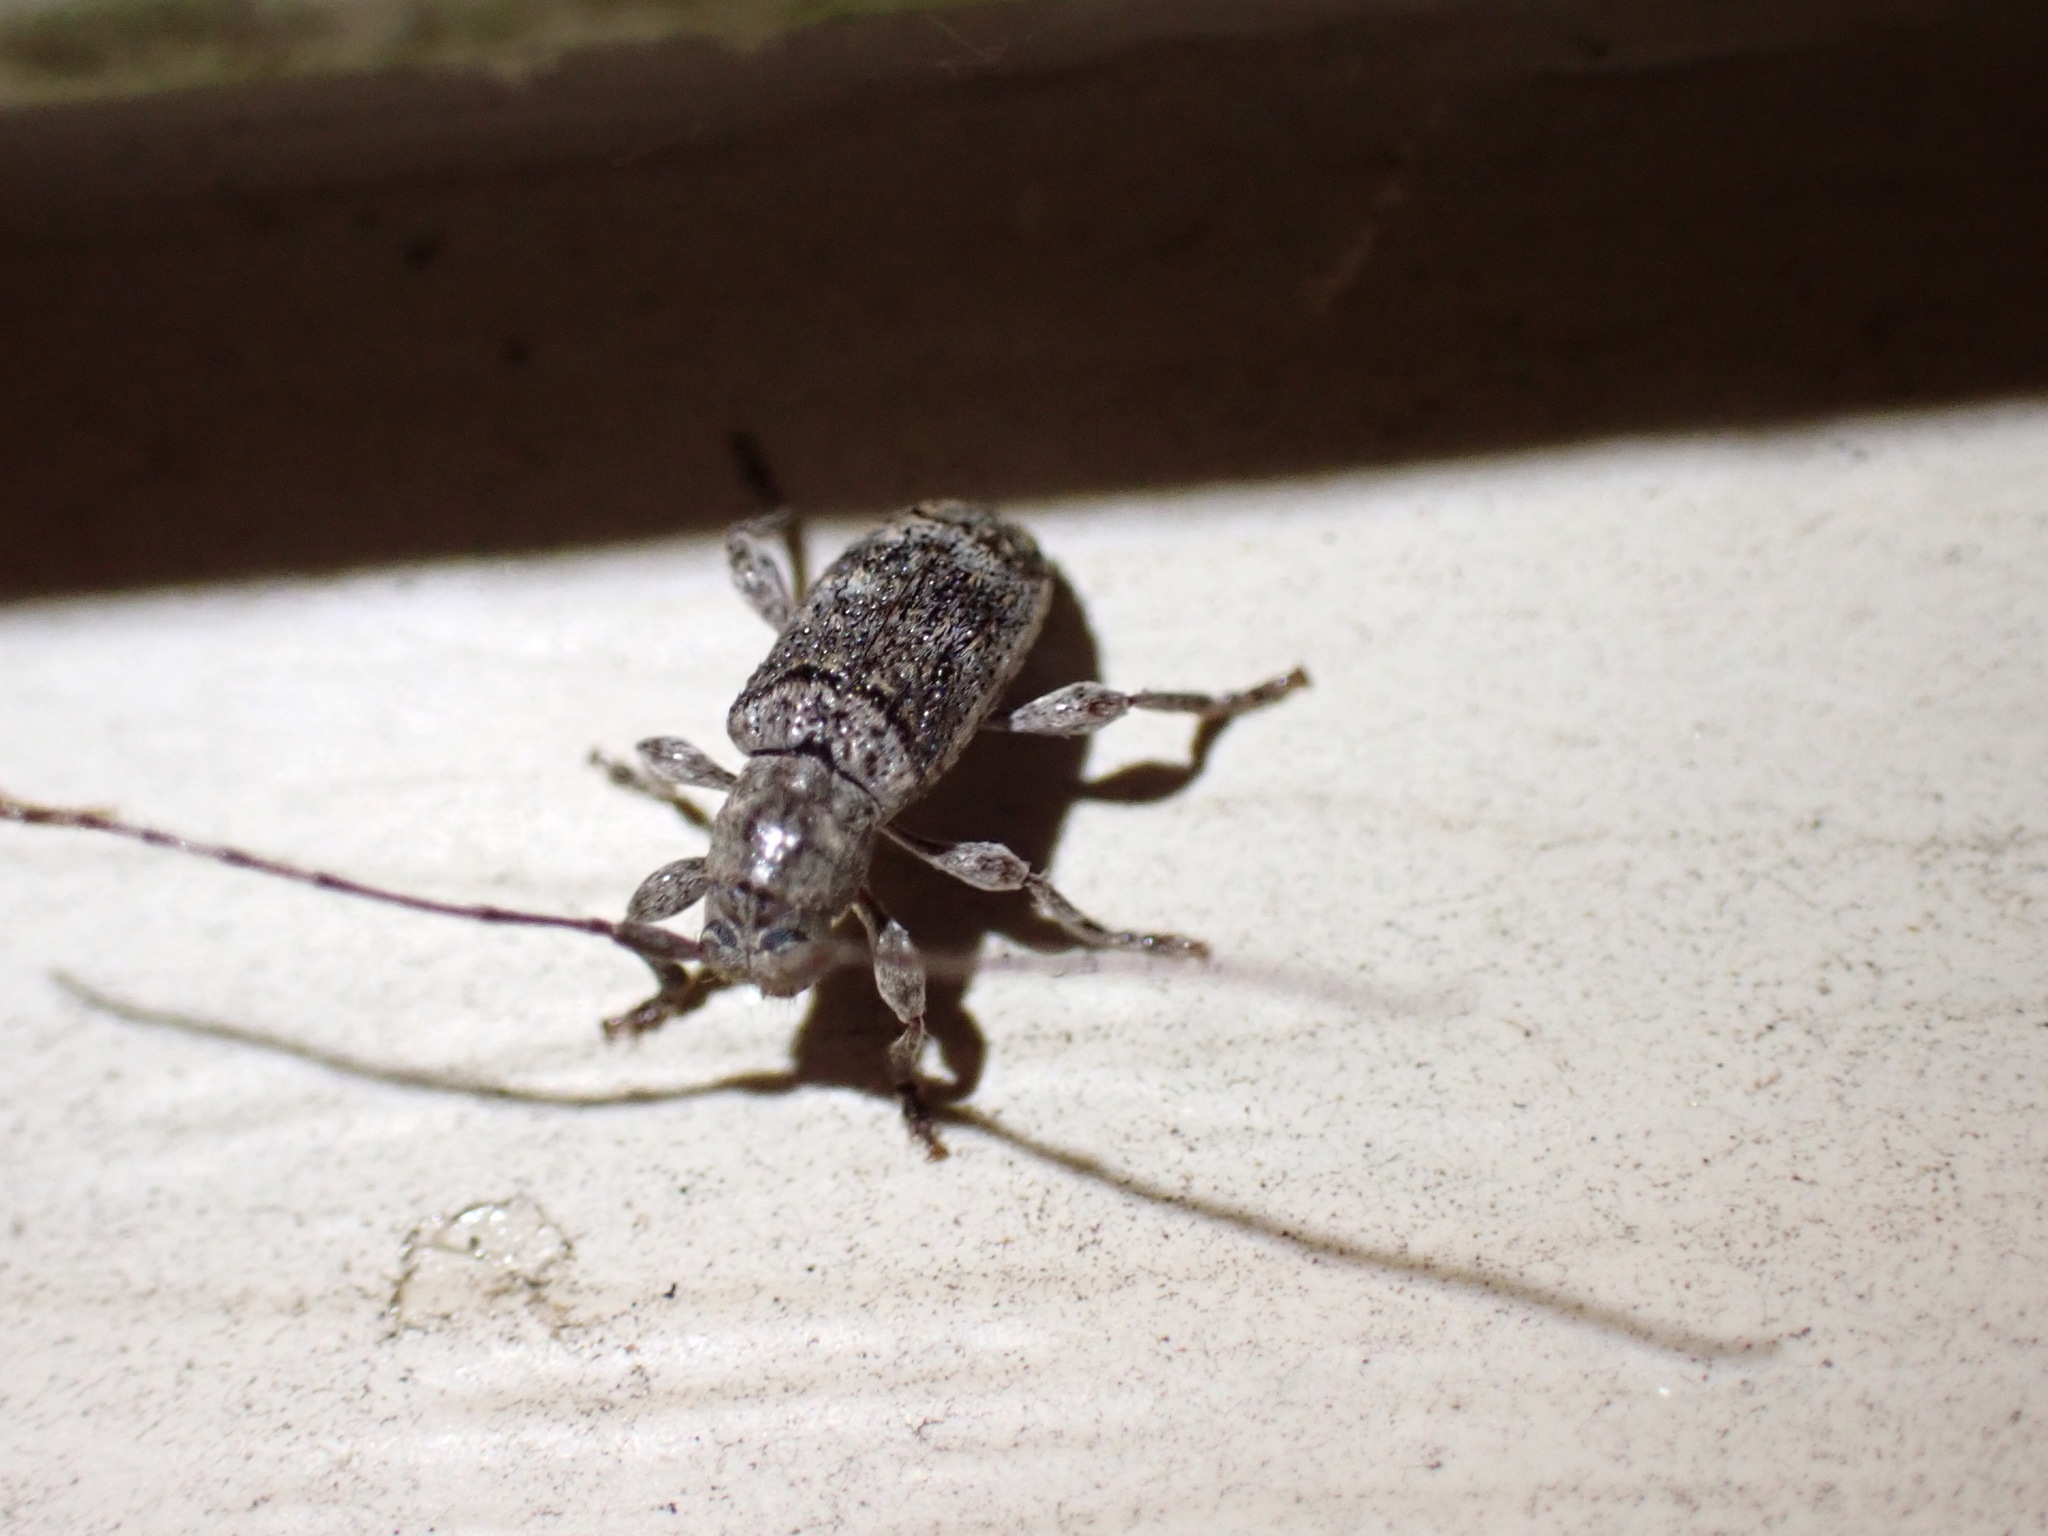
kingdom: Animalia
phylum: Arthropoda
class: Insecta
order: Coleoptera
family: Cerambycidae
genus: Ecyrus
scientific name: Ecyrus dasycerus
